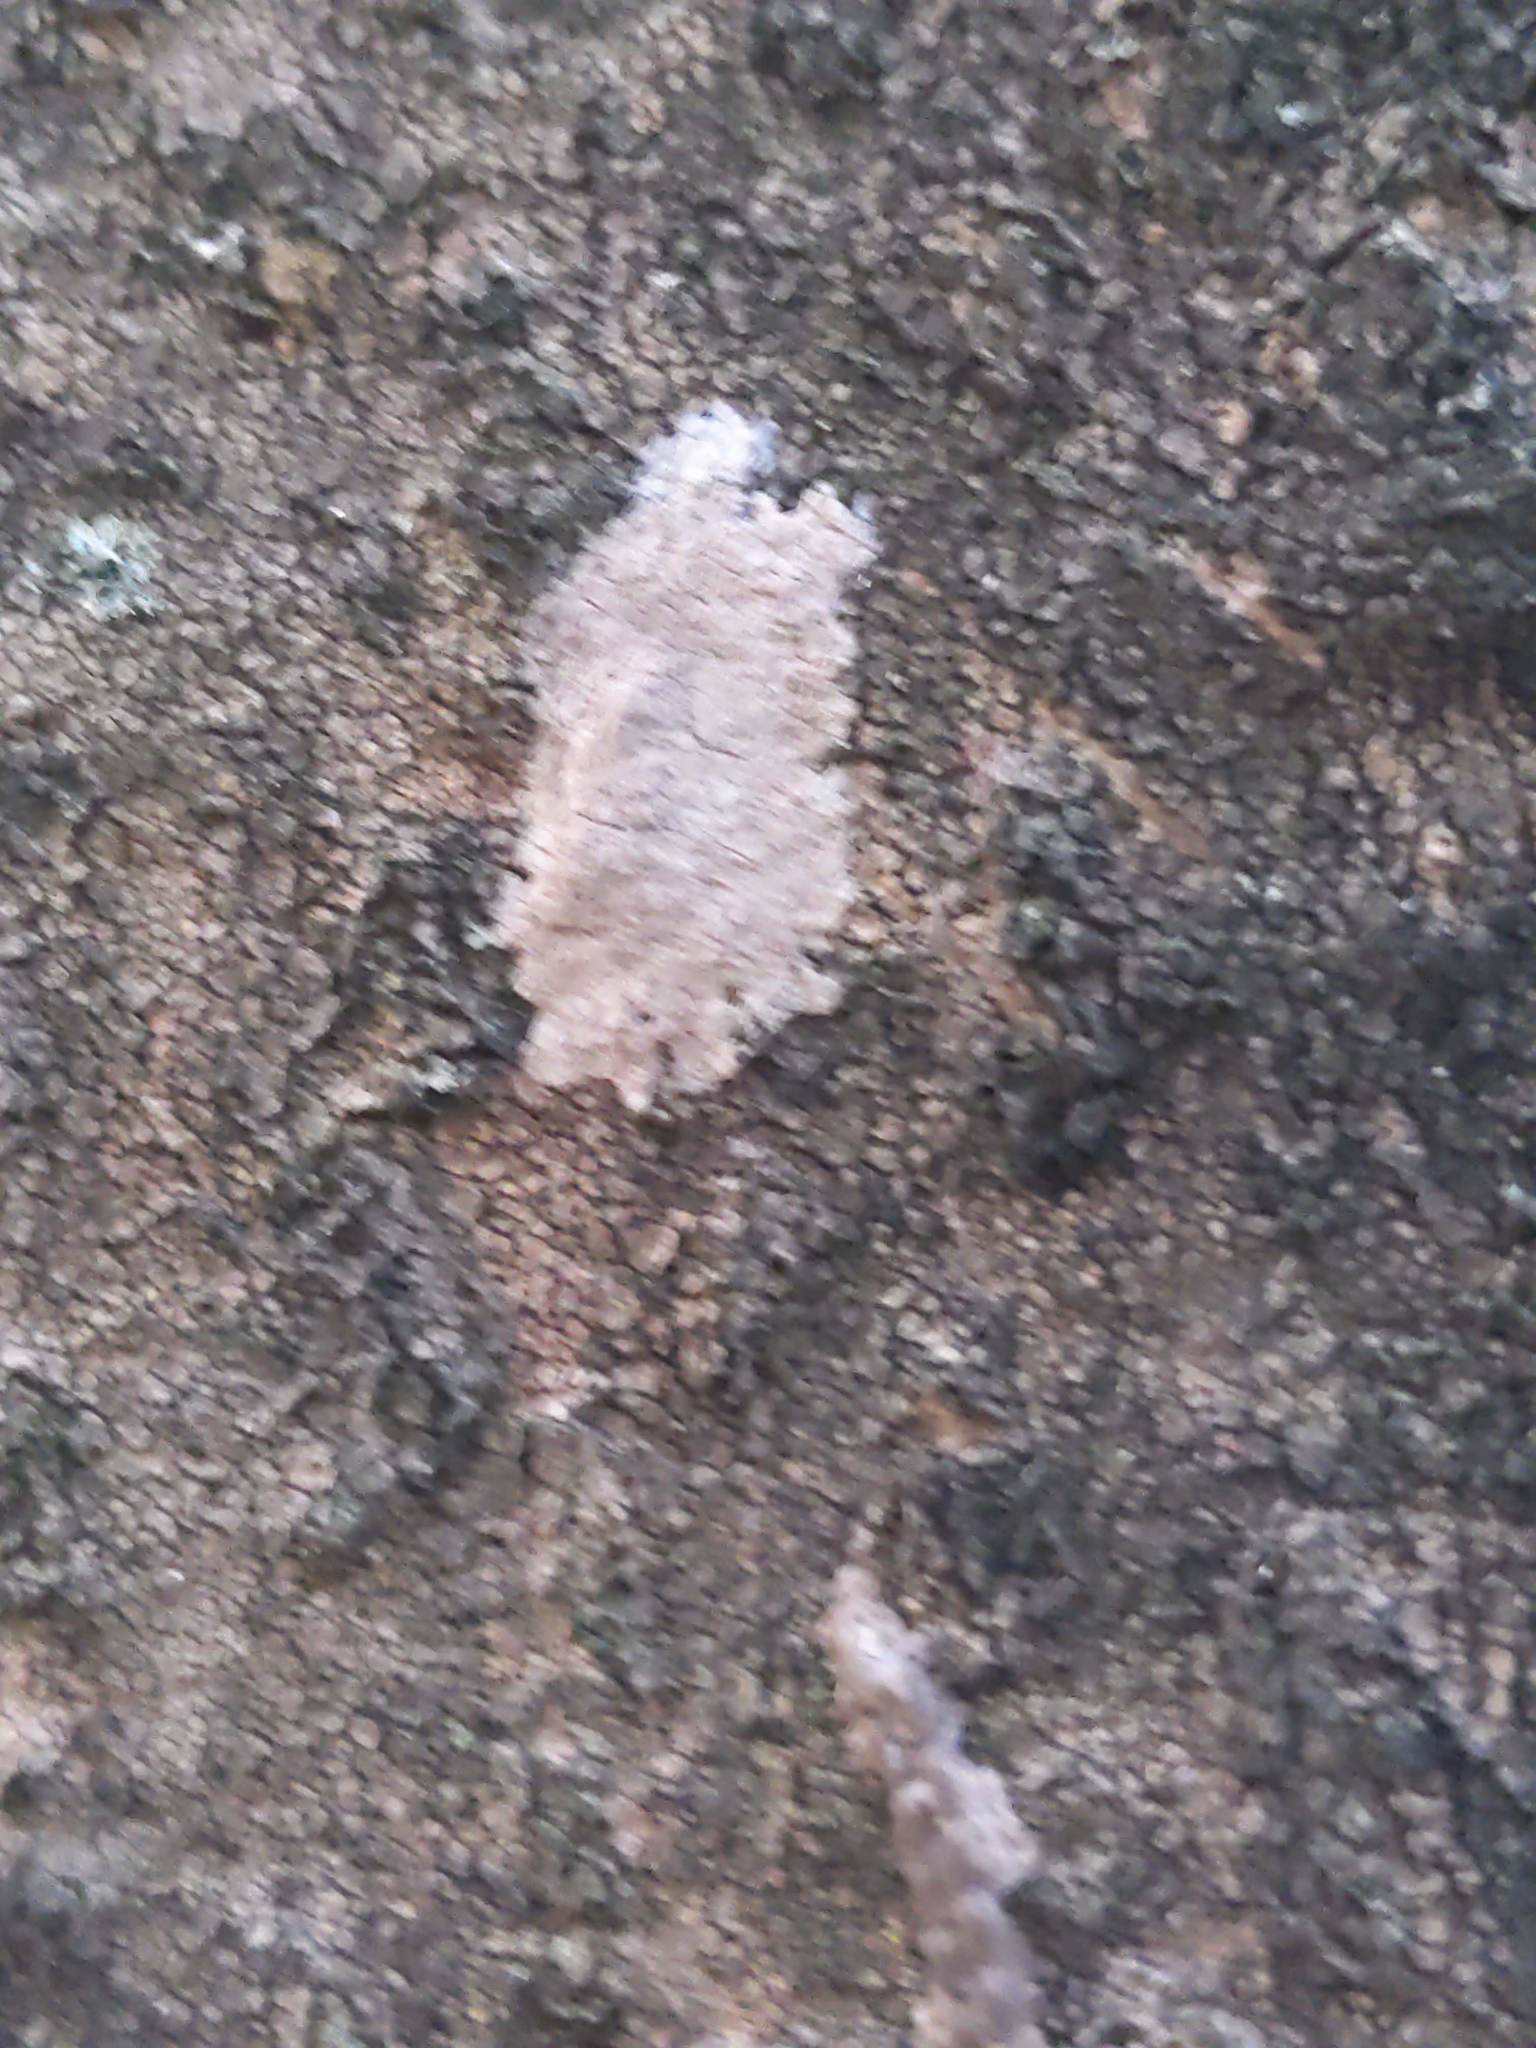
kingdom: Animalia
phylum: Arthropoda
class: Insecta
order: Hemiptera
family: Fulgoridae
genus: Lycorma
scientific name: Lycorma delicatula
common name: Spotted lanternfly
